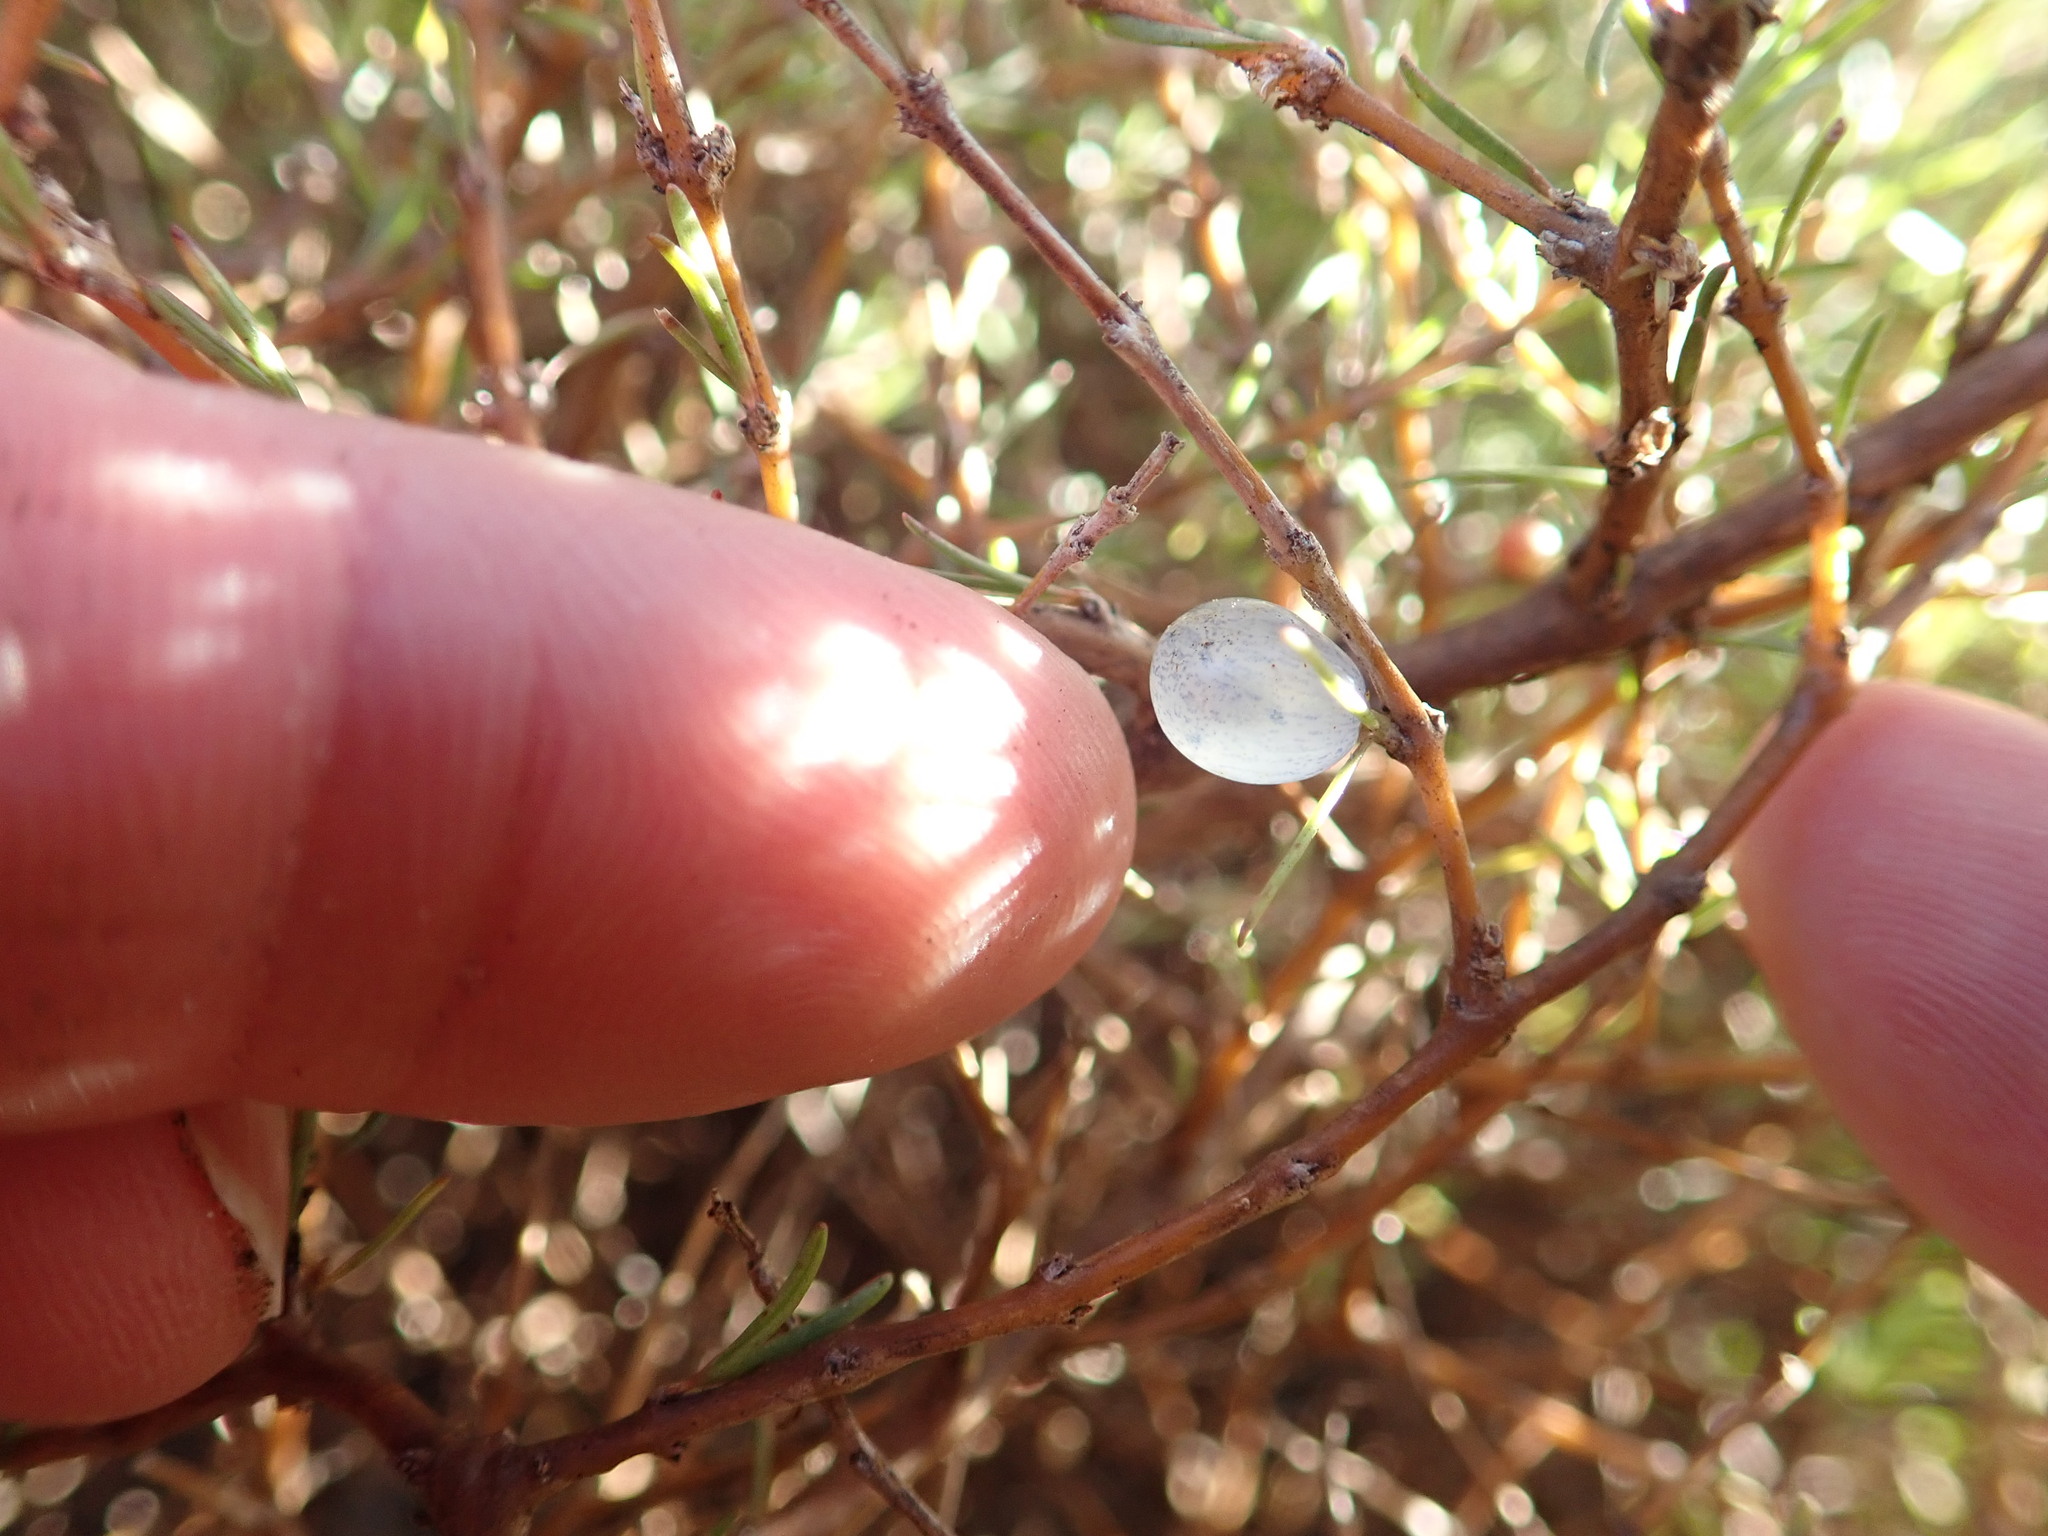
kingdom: Plantae
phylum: Tracheophyta
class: Magnoliopsida
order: Gentianales
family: Rubiaceae
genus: Coprosma
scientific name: Coprosma acerosa
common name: Sand coprosma
